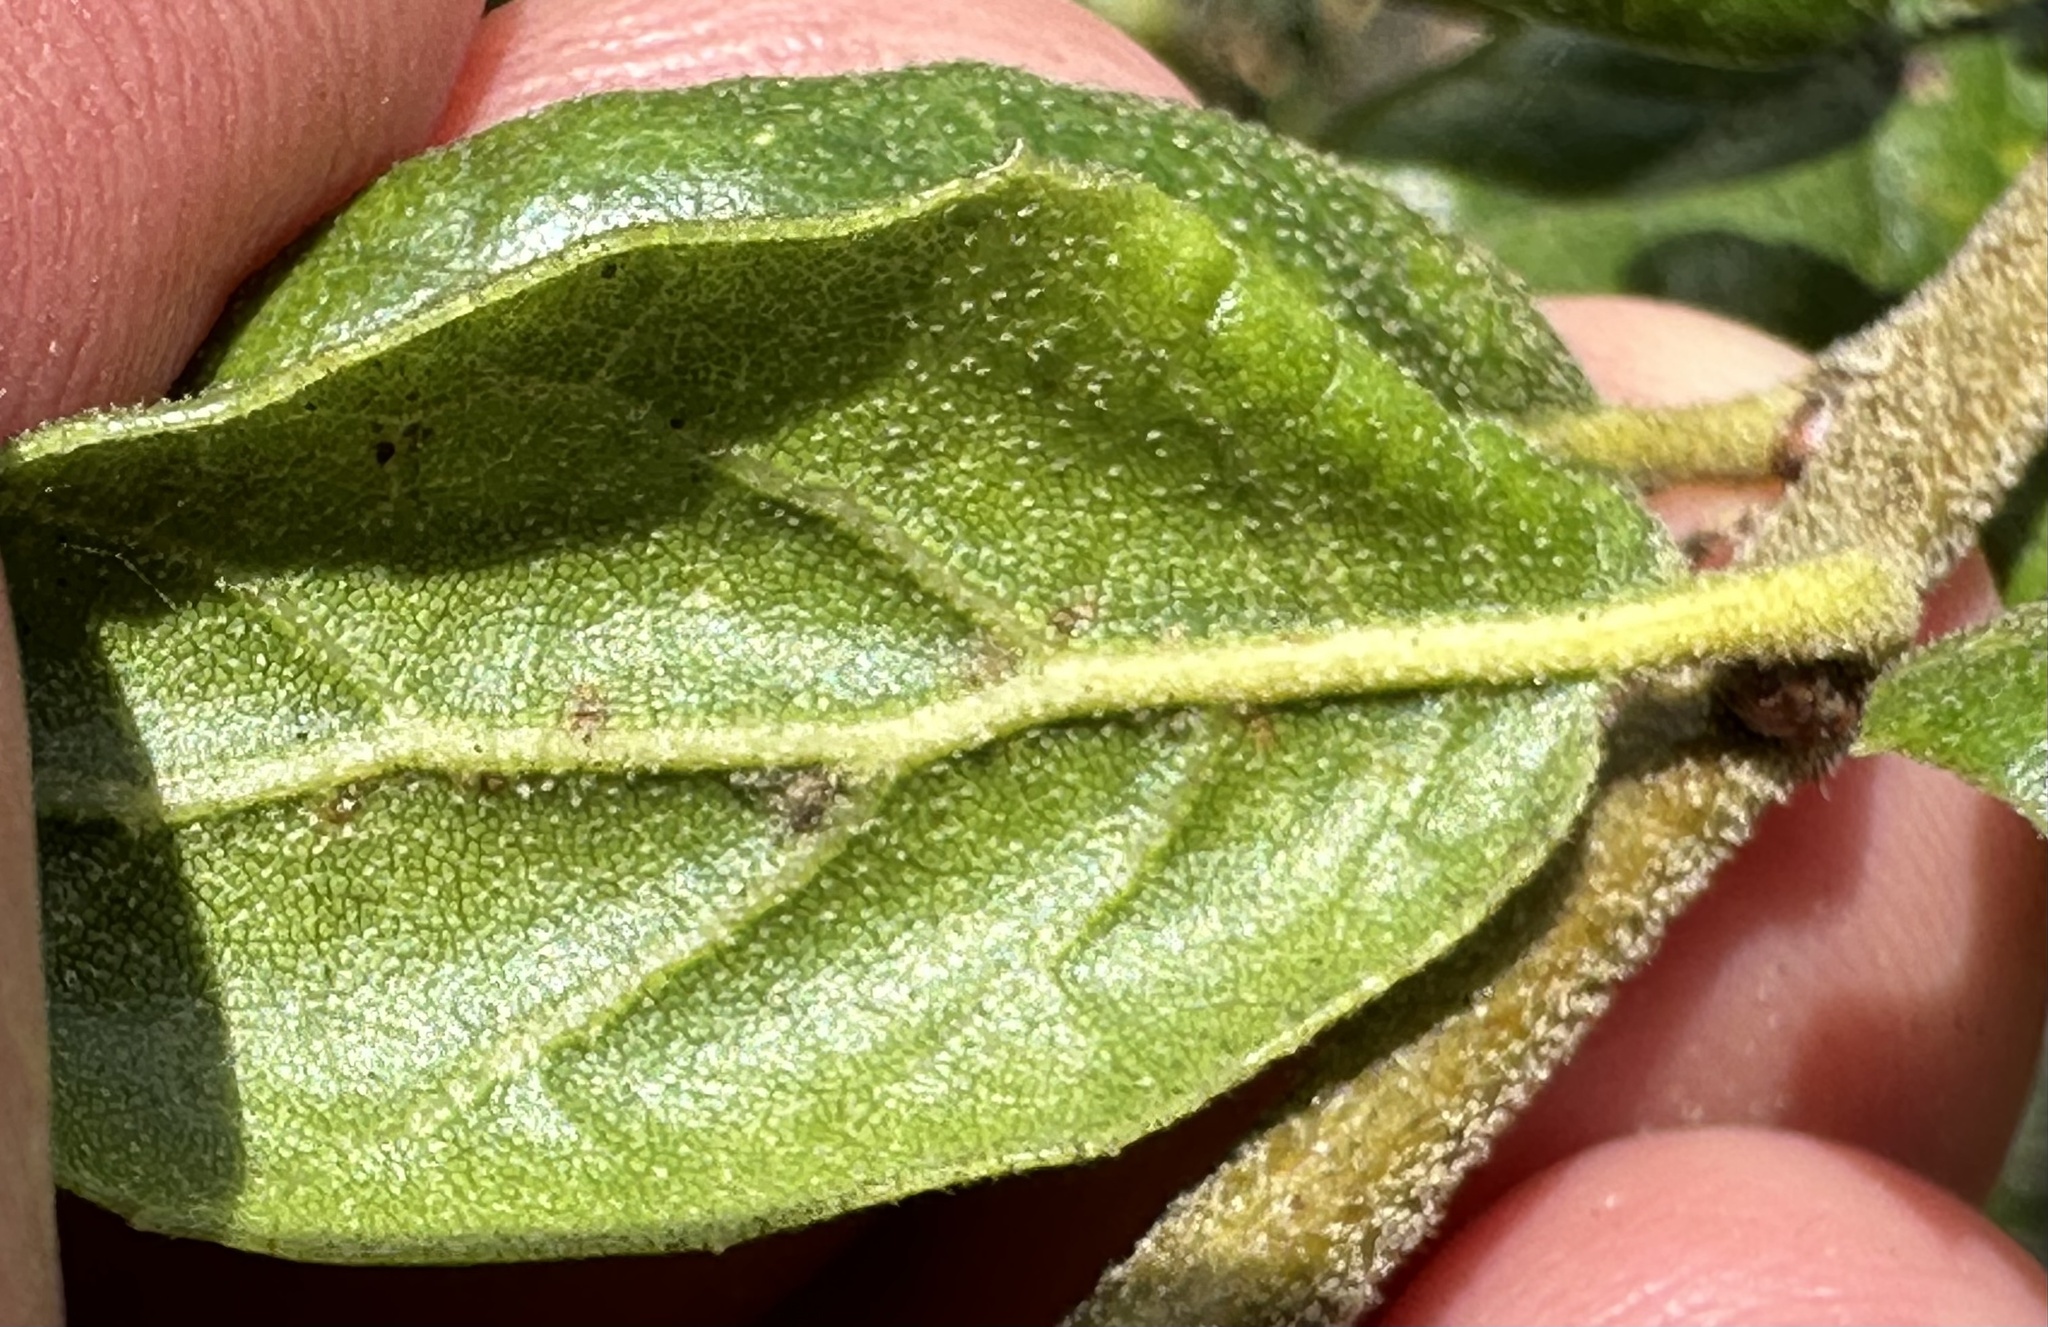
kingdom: Plantae
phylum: Tracheophyta
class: Magnoliopsida
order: Fagales
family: Fagaceae
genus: Quercus
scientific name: Quercus agrifolia
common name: California live oak
